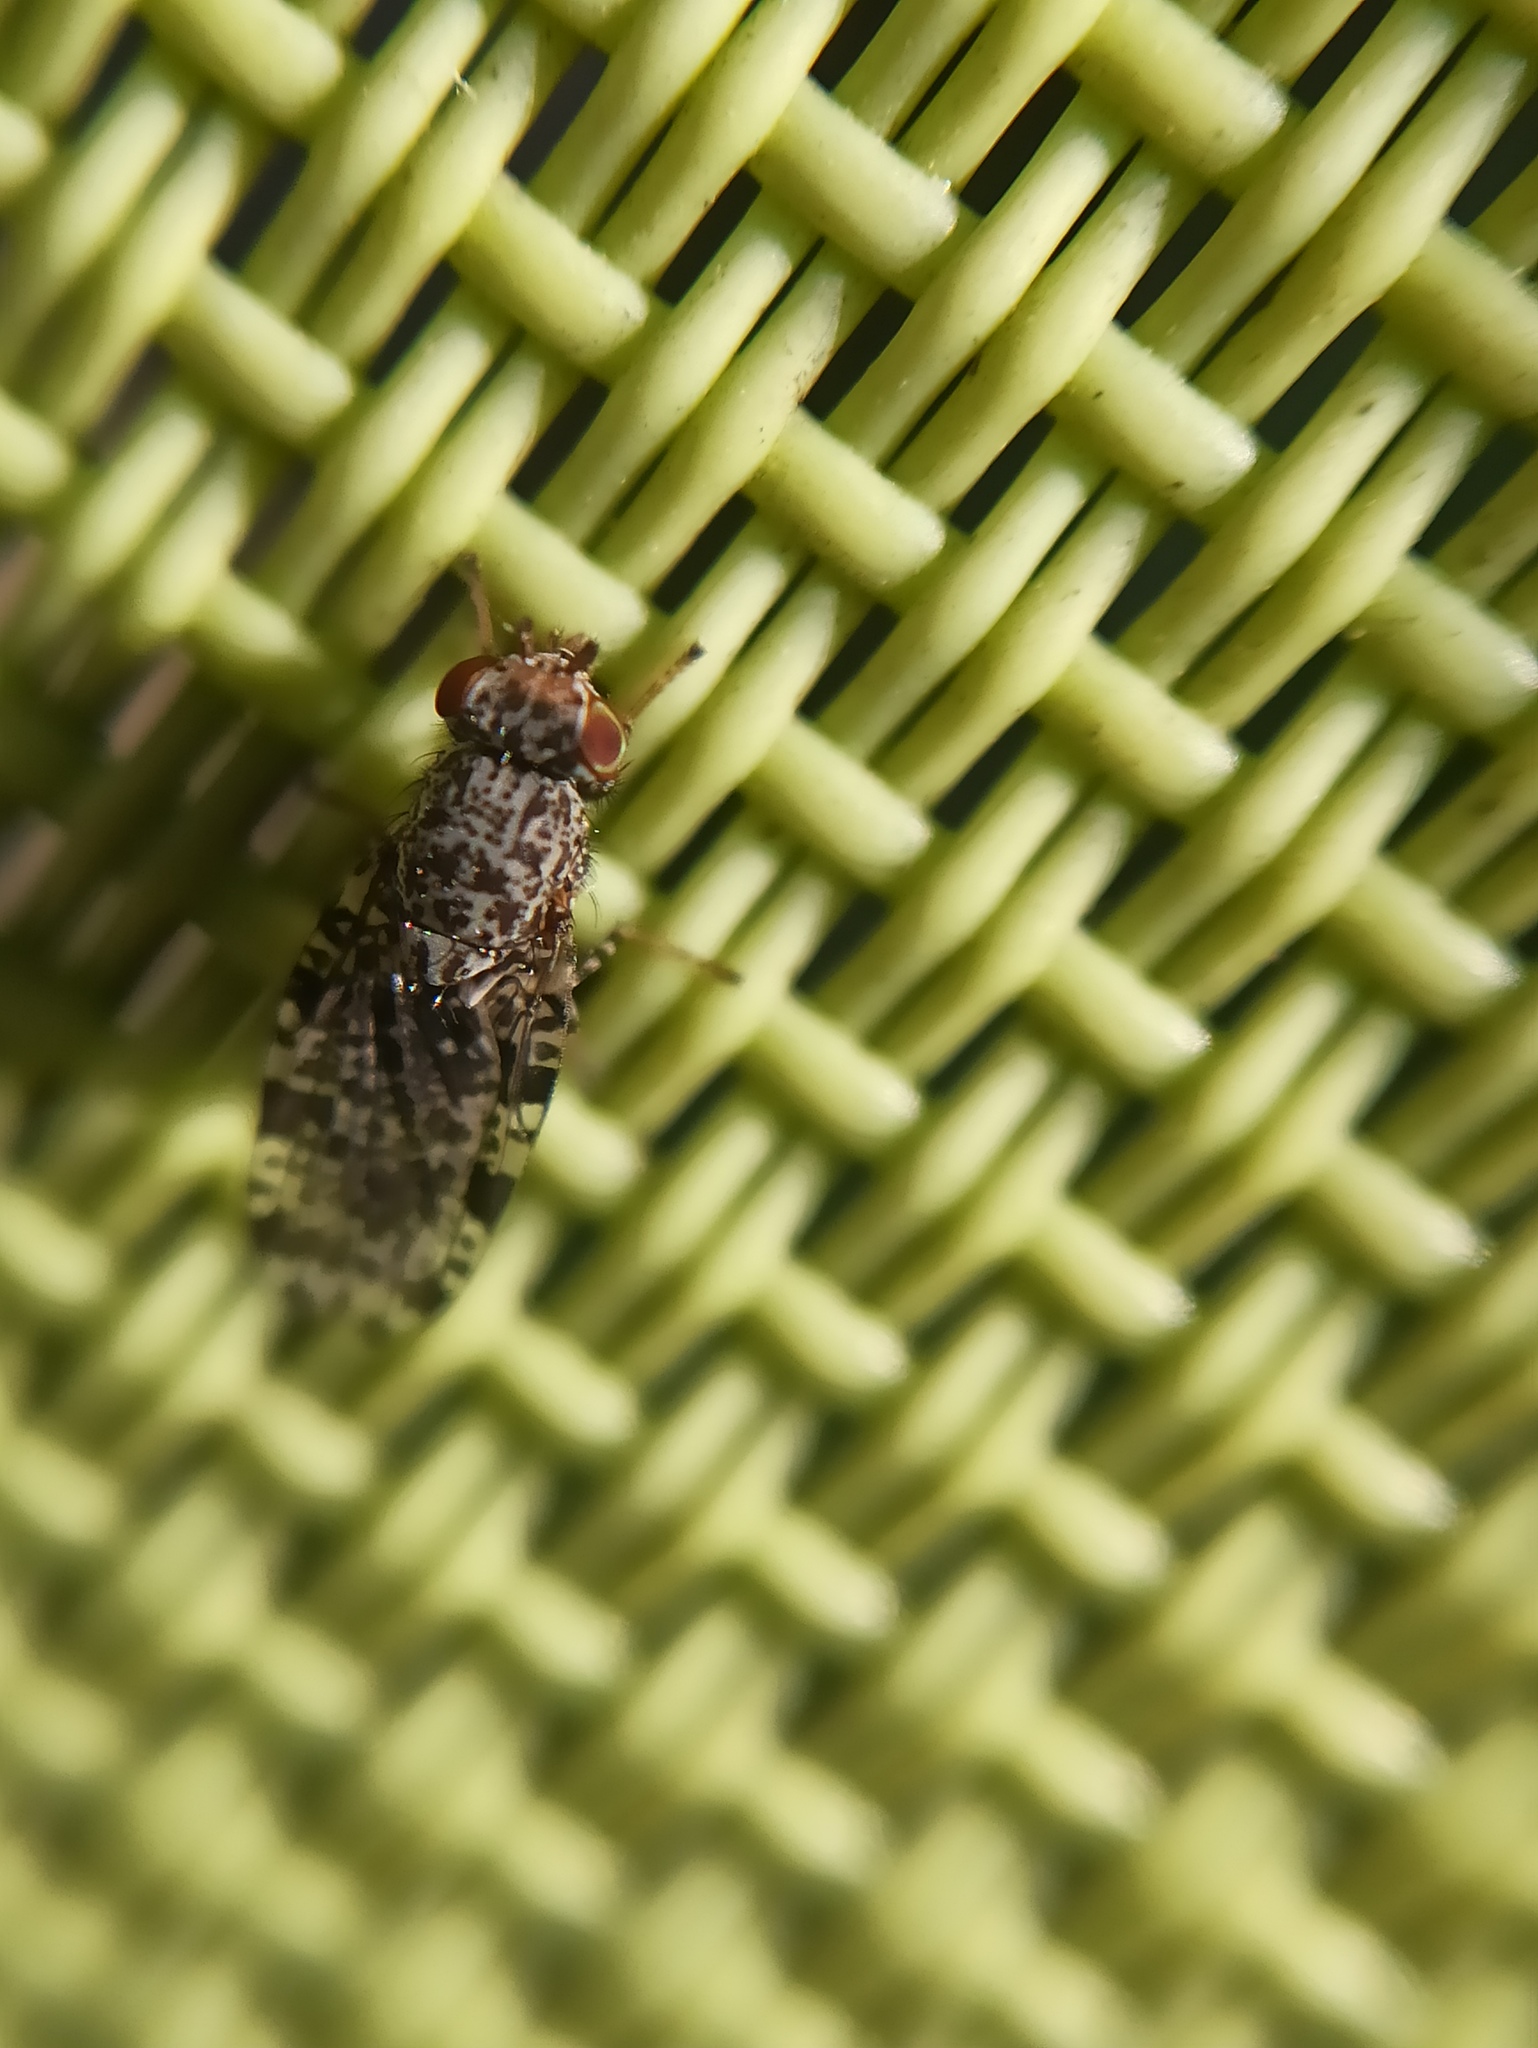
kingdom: Animalia
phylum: Arthropoda
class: Insecta
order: Diptera
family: Ulidiidae
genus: Callopistromyia
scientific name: Callopistromyia annulipes
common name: Peacock fly
